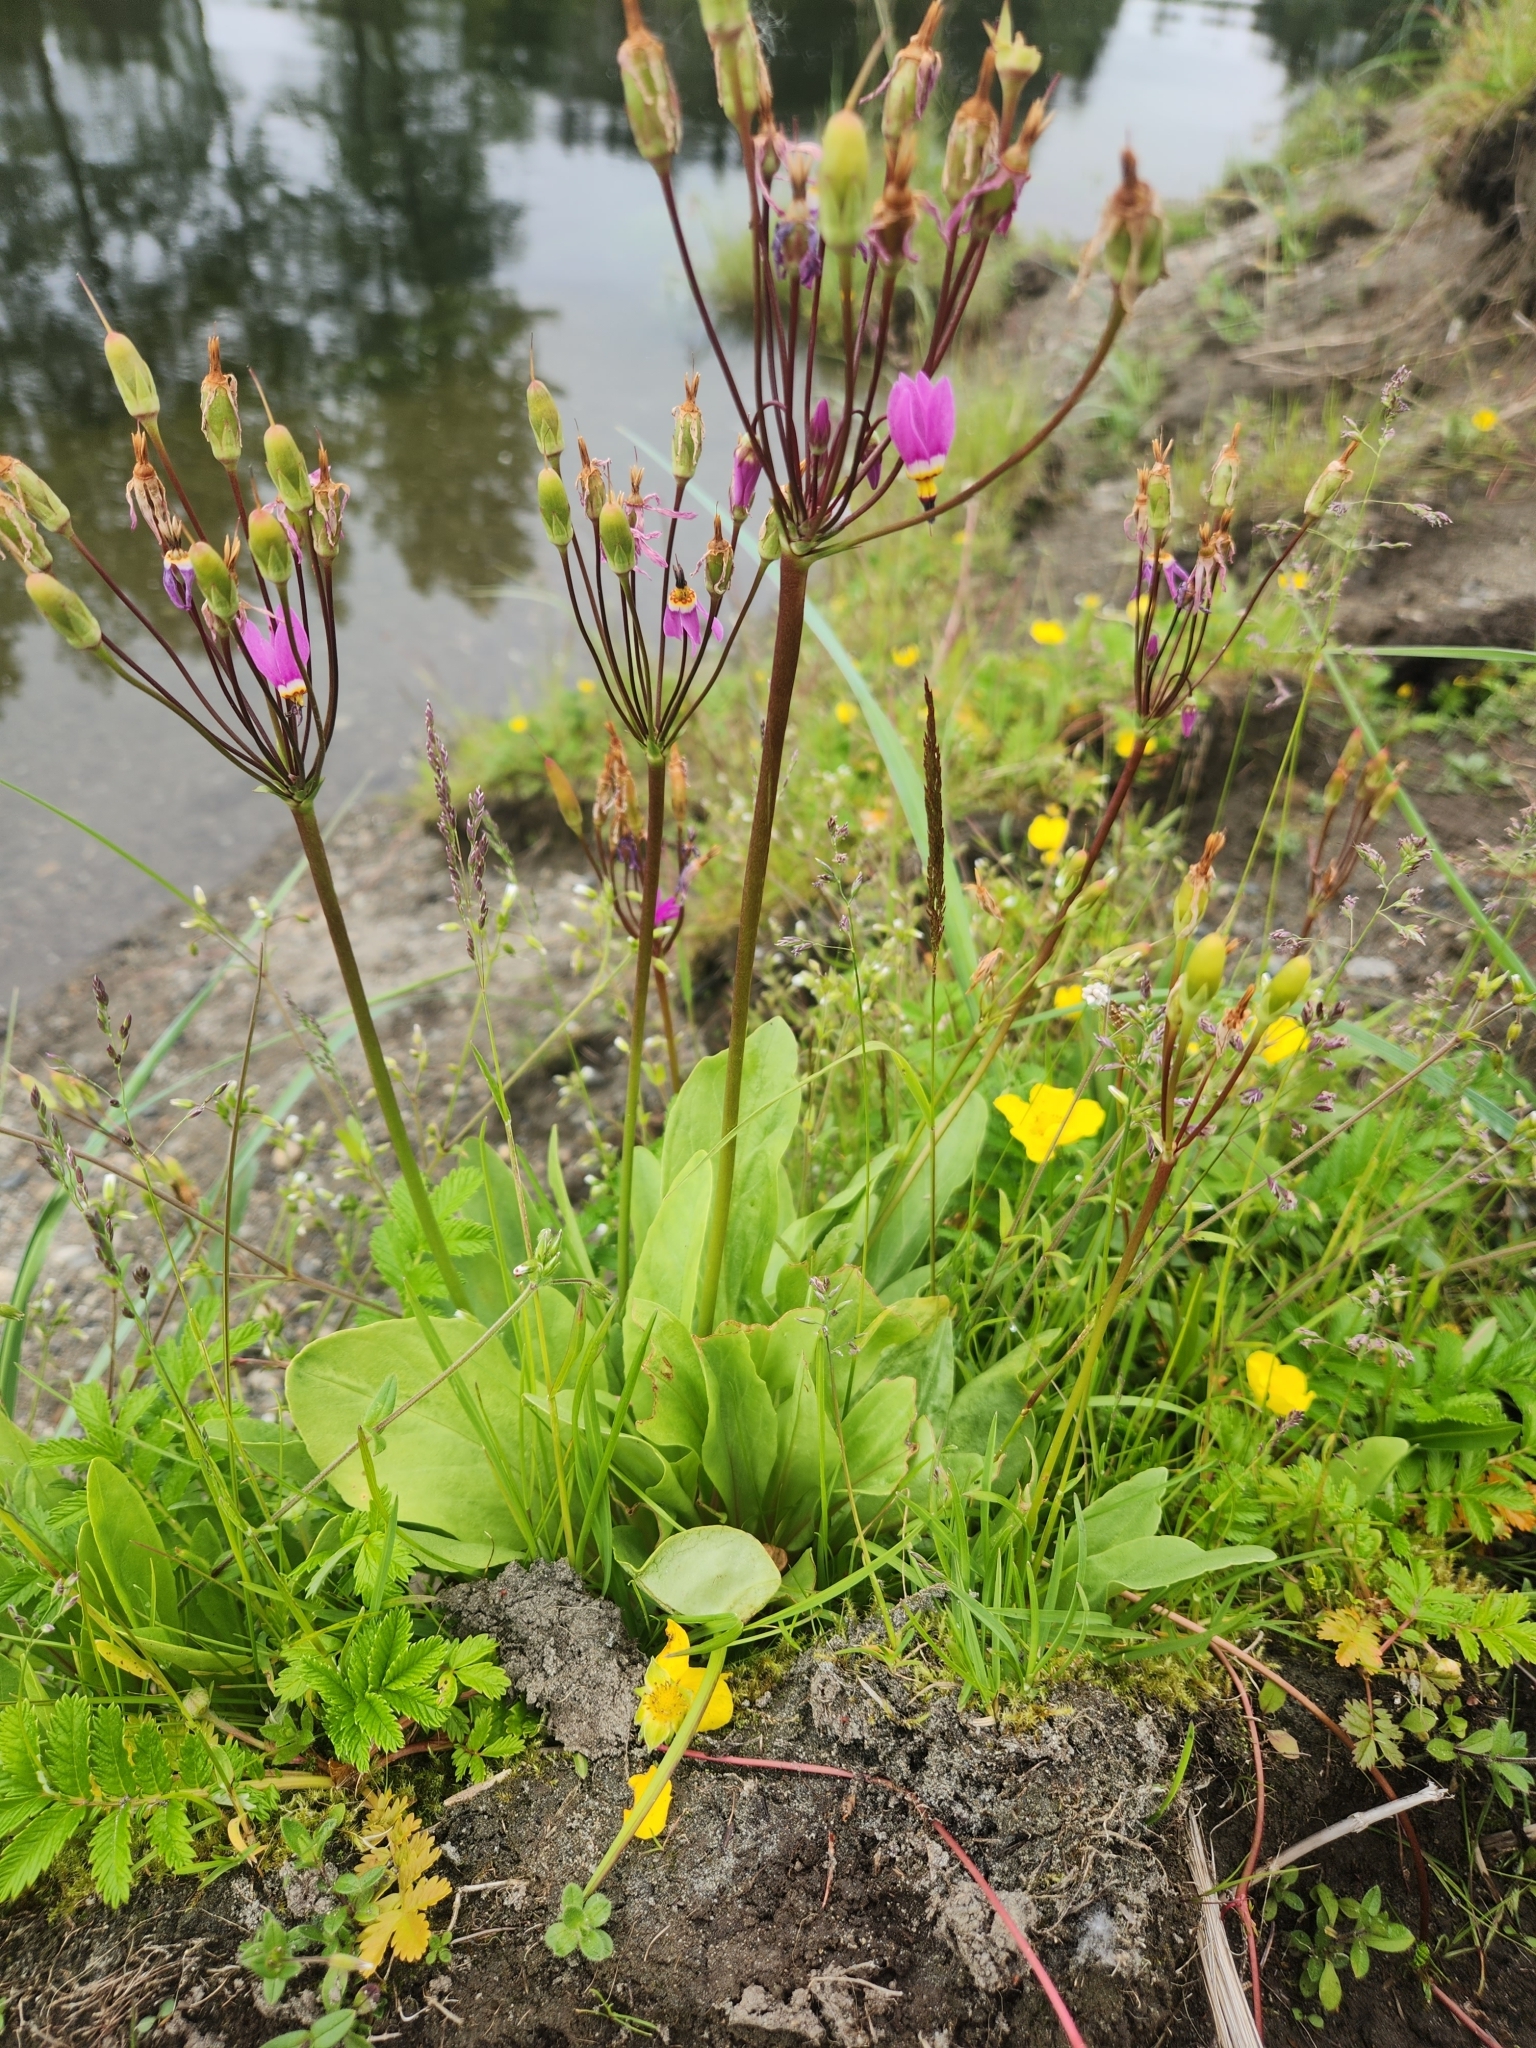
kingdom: Plantae
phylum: Tracheophyta
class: Magnoliopsida
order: Ericales
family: Primulaceae
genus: Dodecatheon
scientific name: Dodecatheon pulchellum
